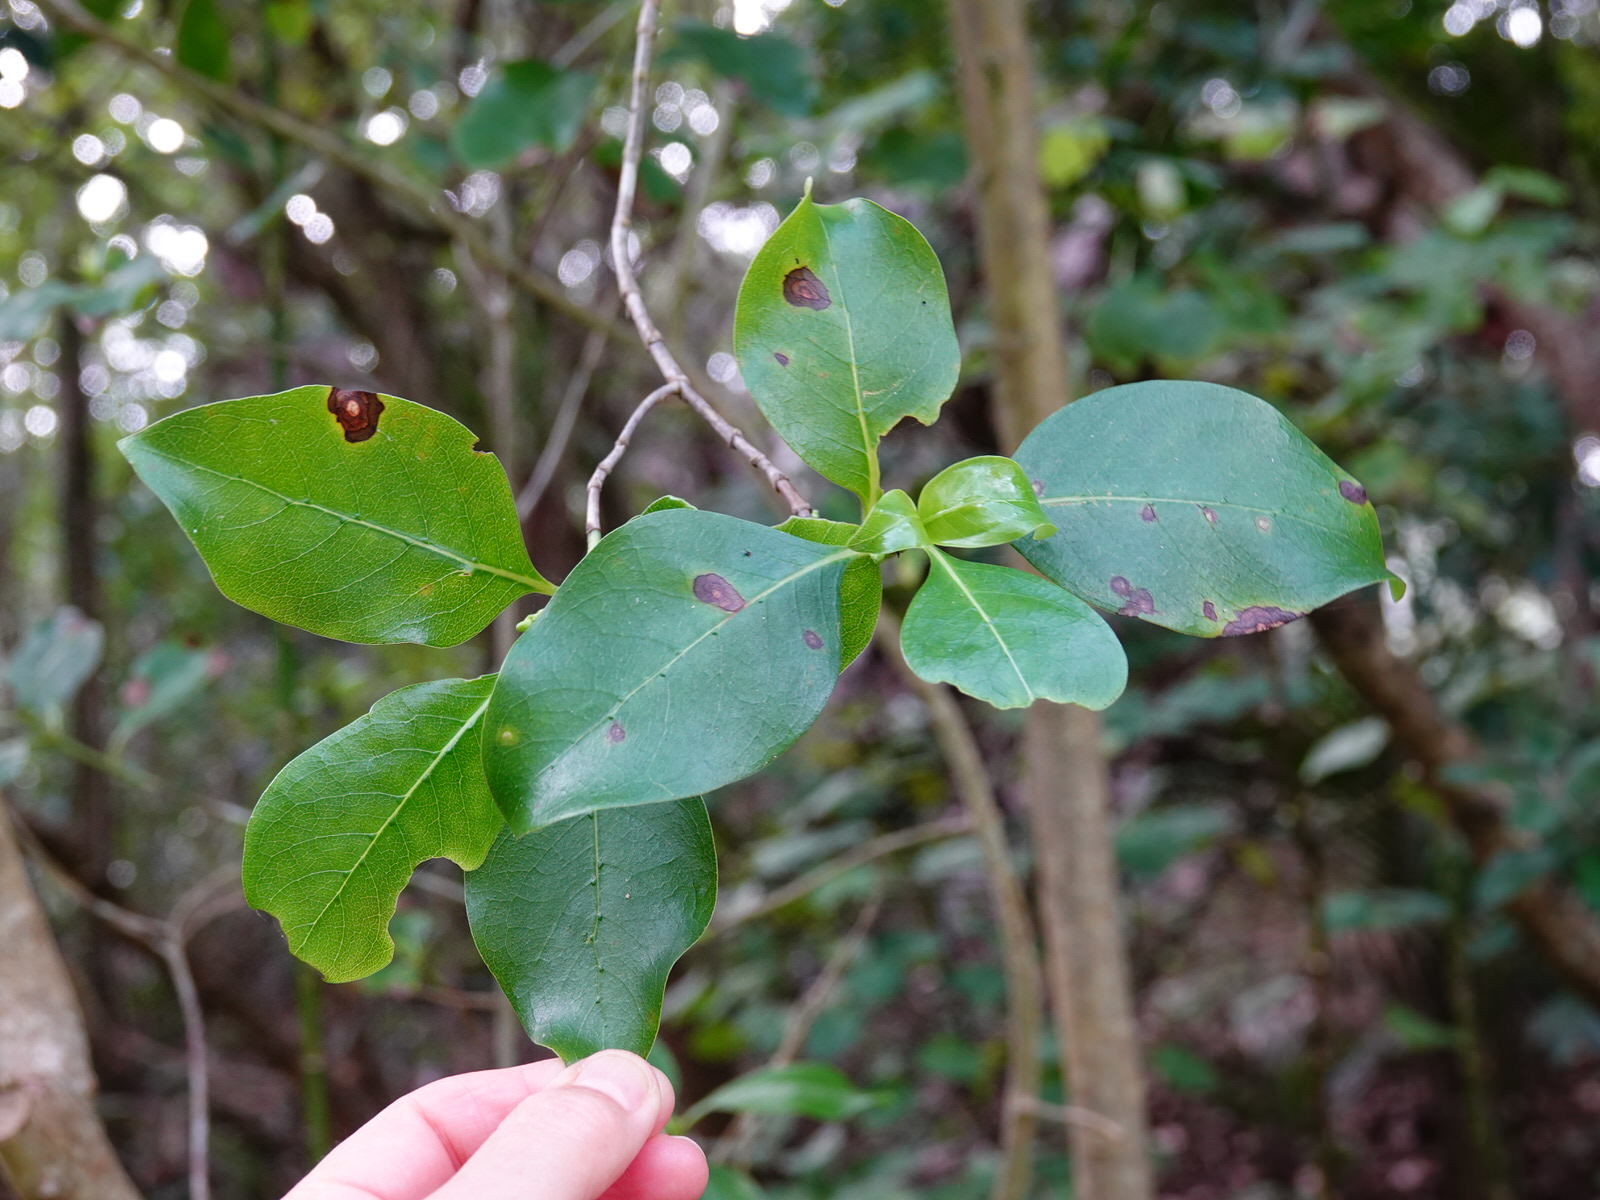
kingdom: Plantae
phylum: Tracheophyta
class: Magnoliopsida
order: Gentianales
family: Rubiaceae
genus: Coprosma
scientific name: Coprosma macrocarpa
